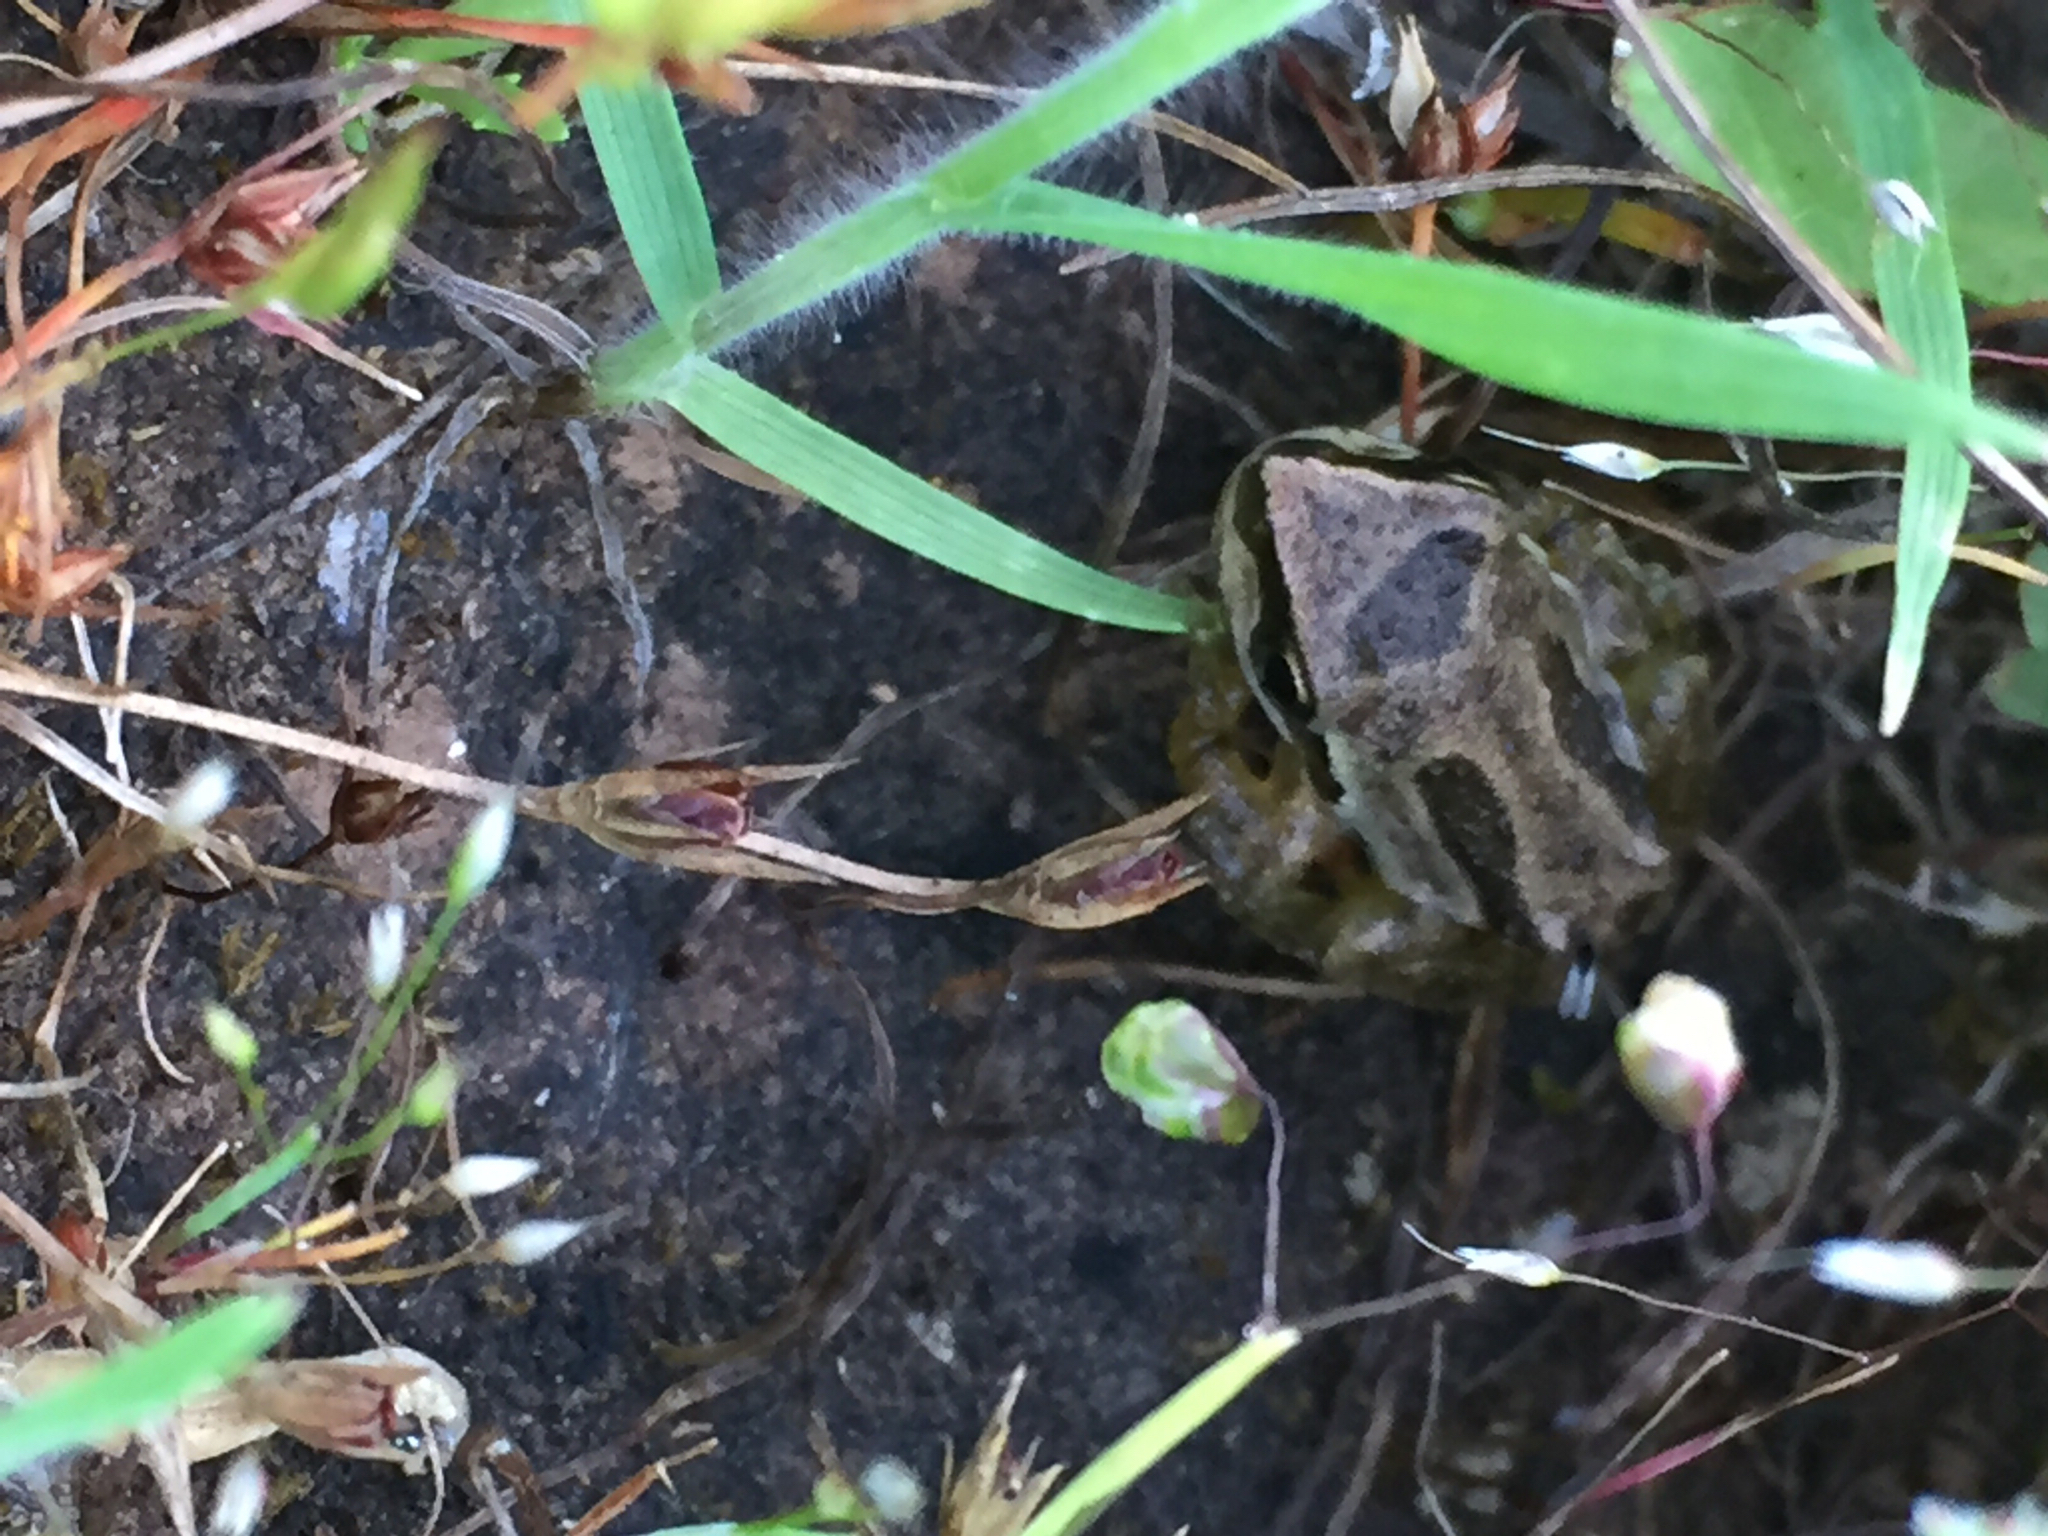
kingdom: Animalia
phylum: Chordata
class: Amphibia
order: Anura
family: Hylidae
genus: Pseudacris
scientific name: Pseudacris regilla
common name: Pacific chorus frog
